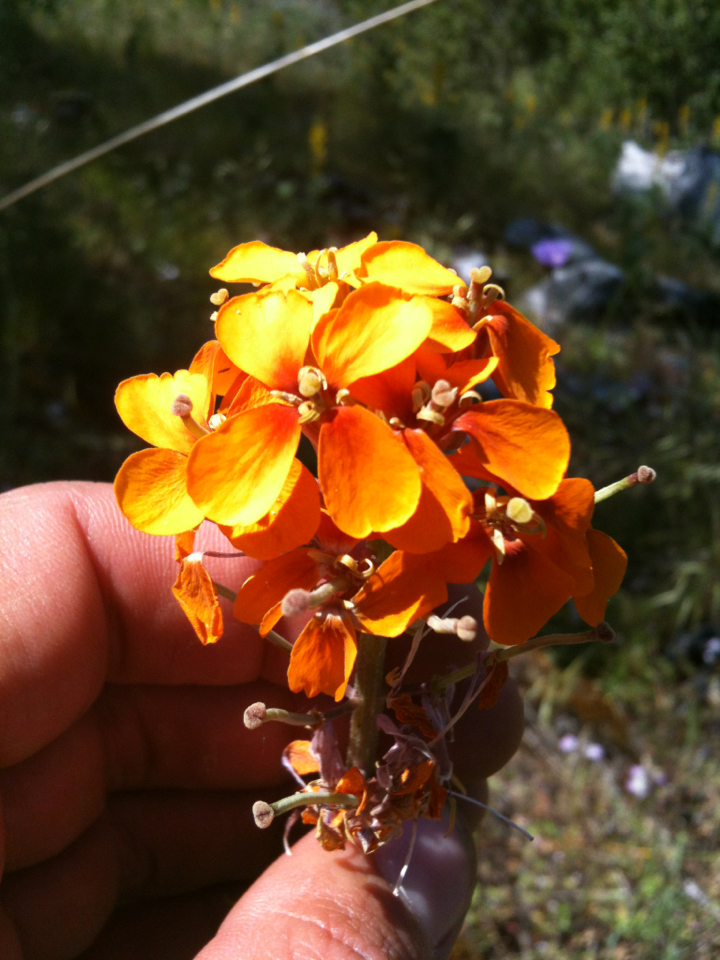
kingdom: Plantae
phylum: Tracheophyta
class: Magnoliopsida
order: Brassicales
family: Brassicaceae
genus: Erysimum
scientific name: Erysimum capitatum
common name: Western wallflower
